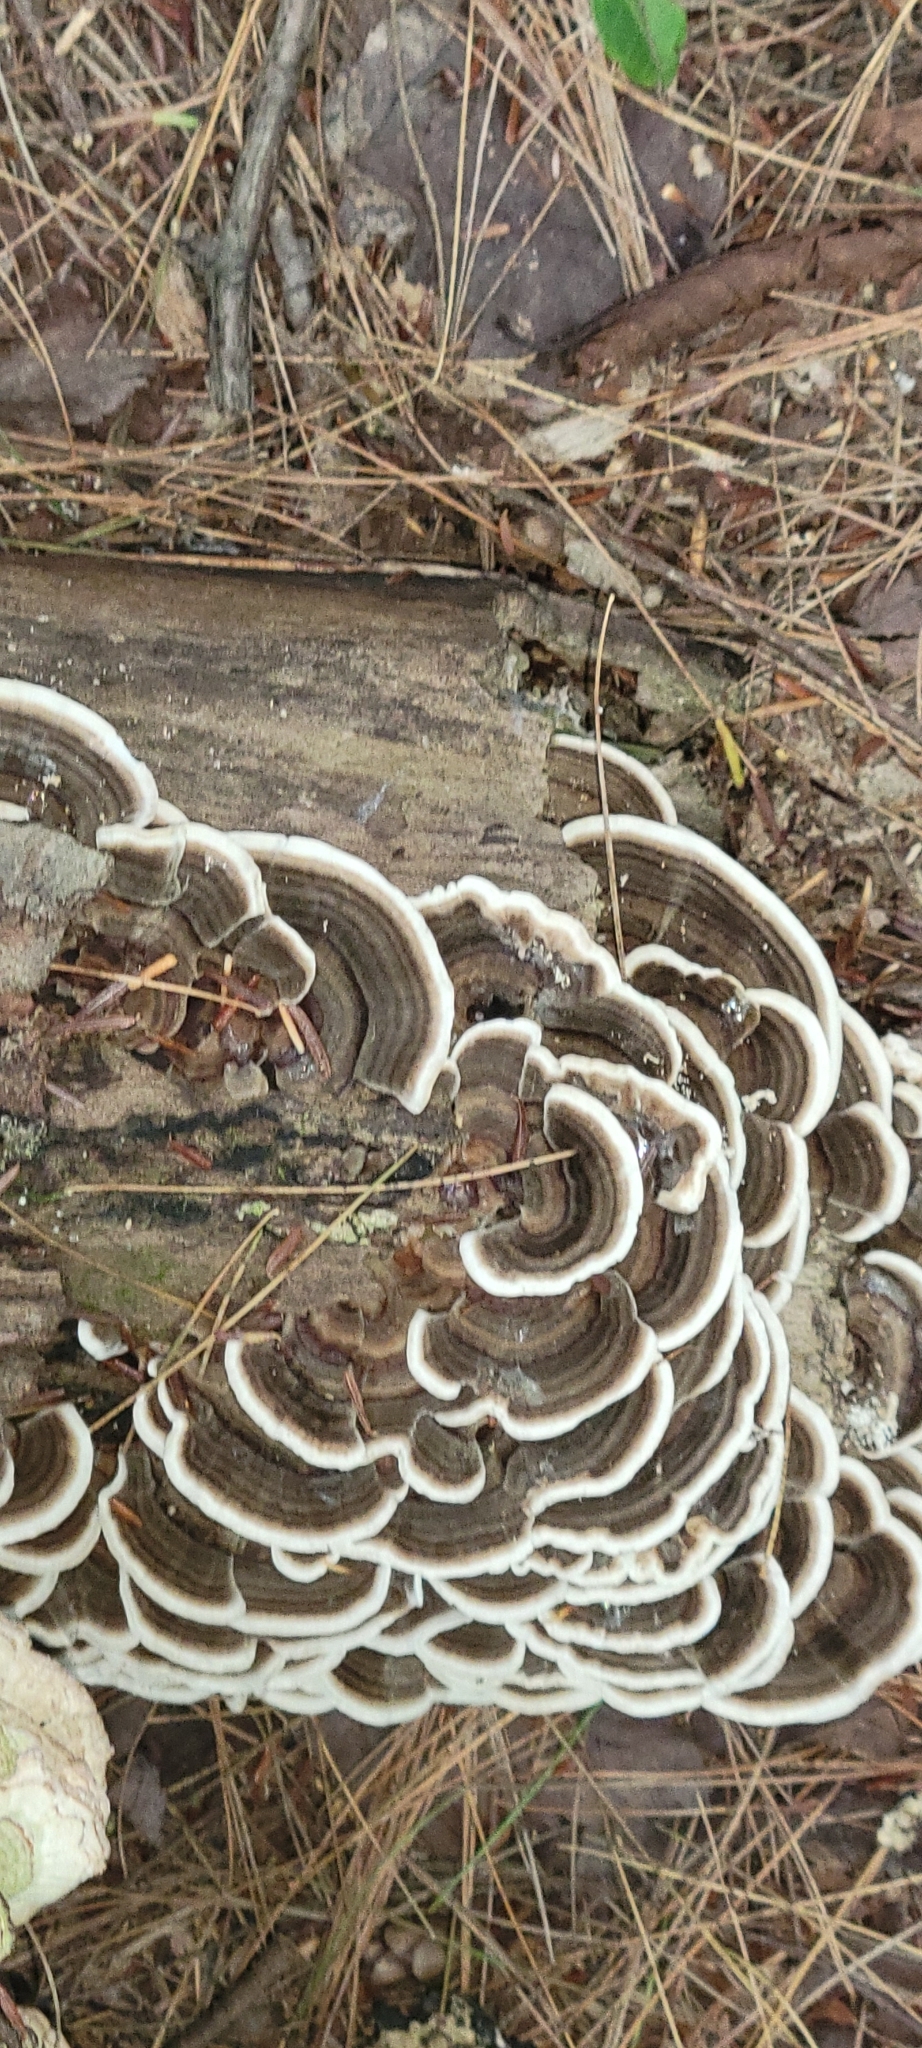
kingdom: Fungi
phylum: Basidiomycota
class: Agaricomycetes
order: Polyporales
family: Polyporaceae
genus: Trametes
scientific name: Trametes versicolor
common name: Turkeytail
